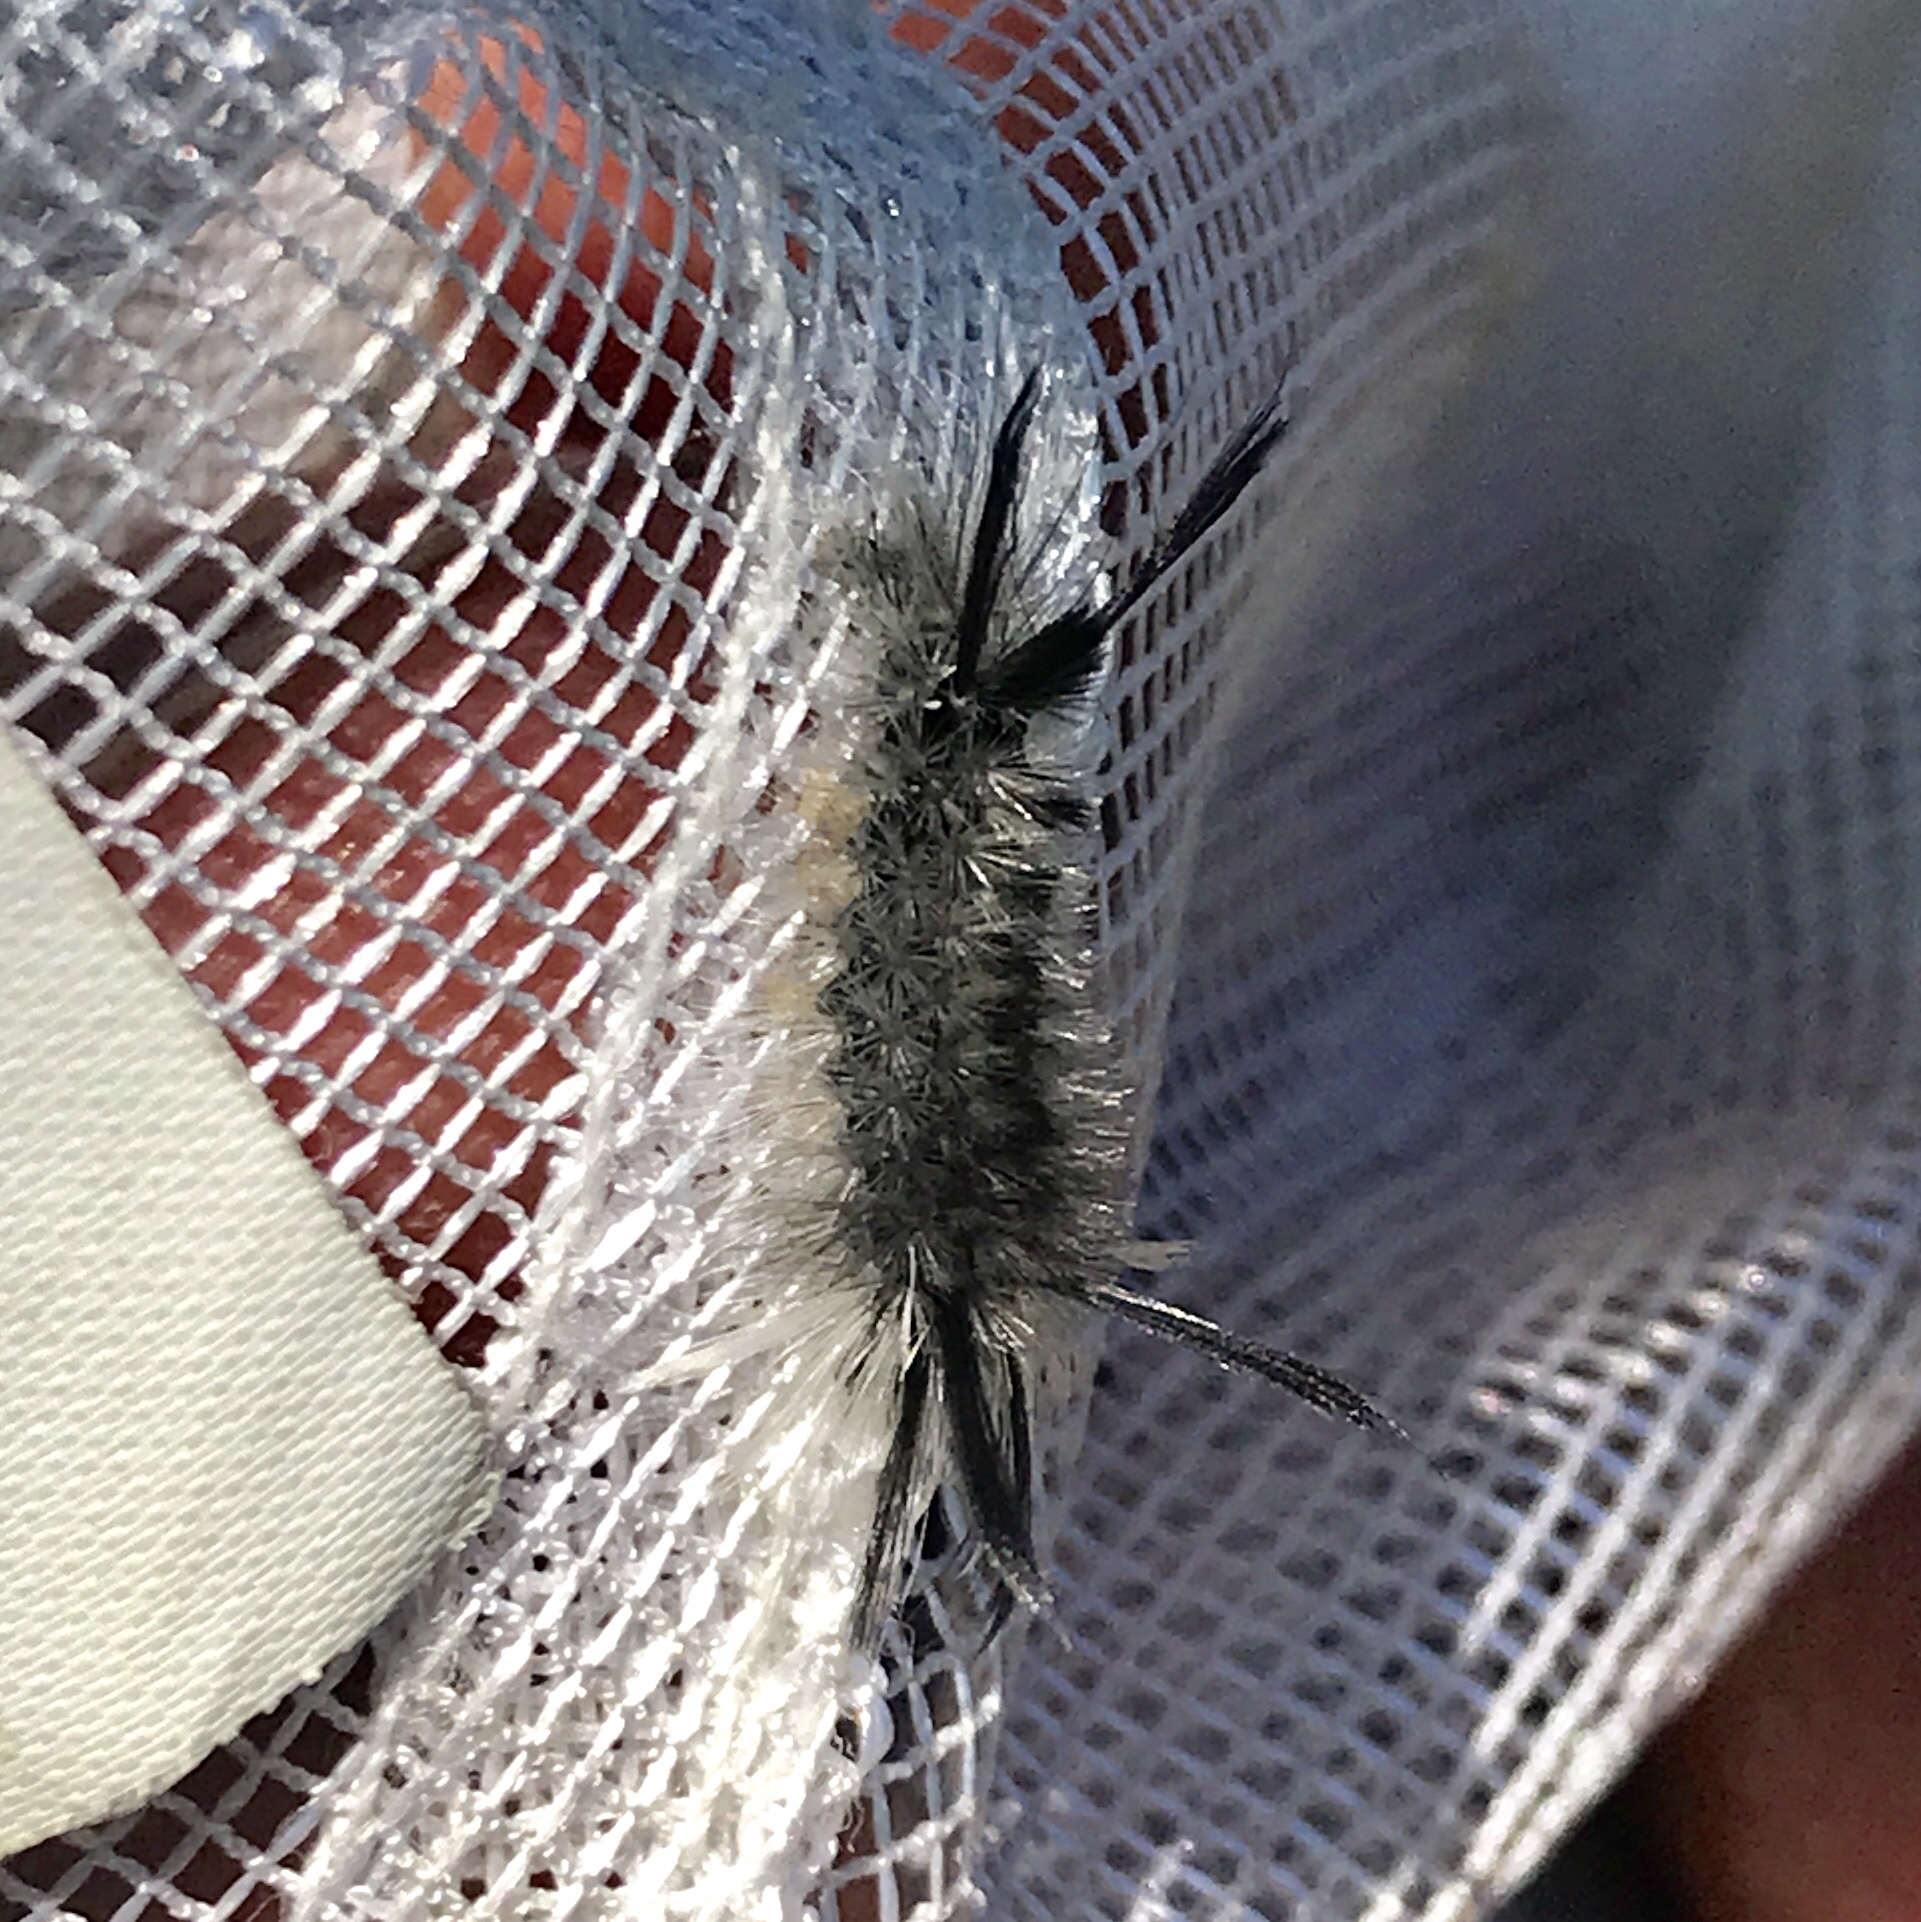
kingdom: Animalia
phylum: Arthropoda
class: Insecta
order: Lepidoptera
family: Erebidae
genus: Halysidota
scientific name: Halysidota tessellaris
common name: Banded tussock moth
